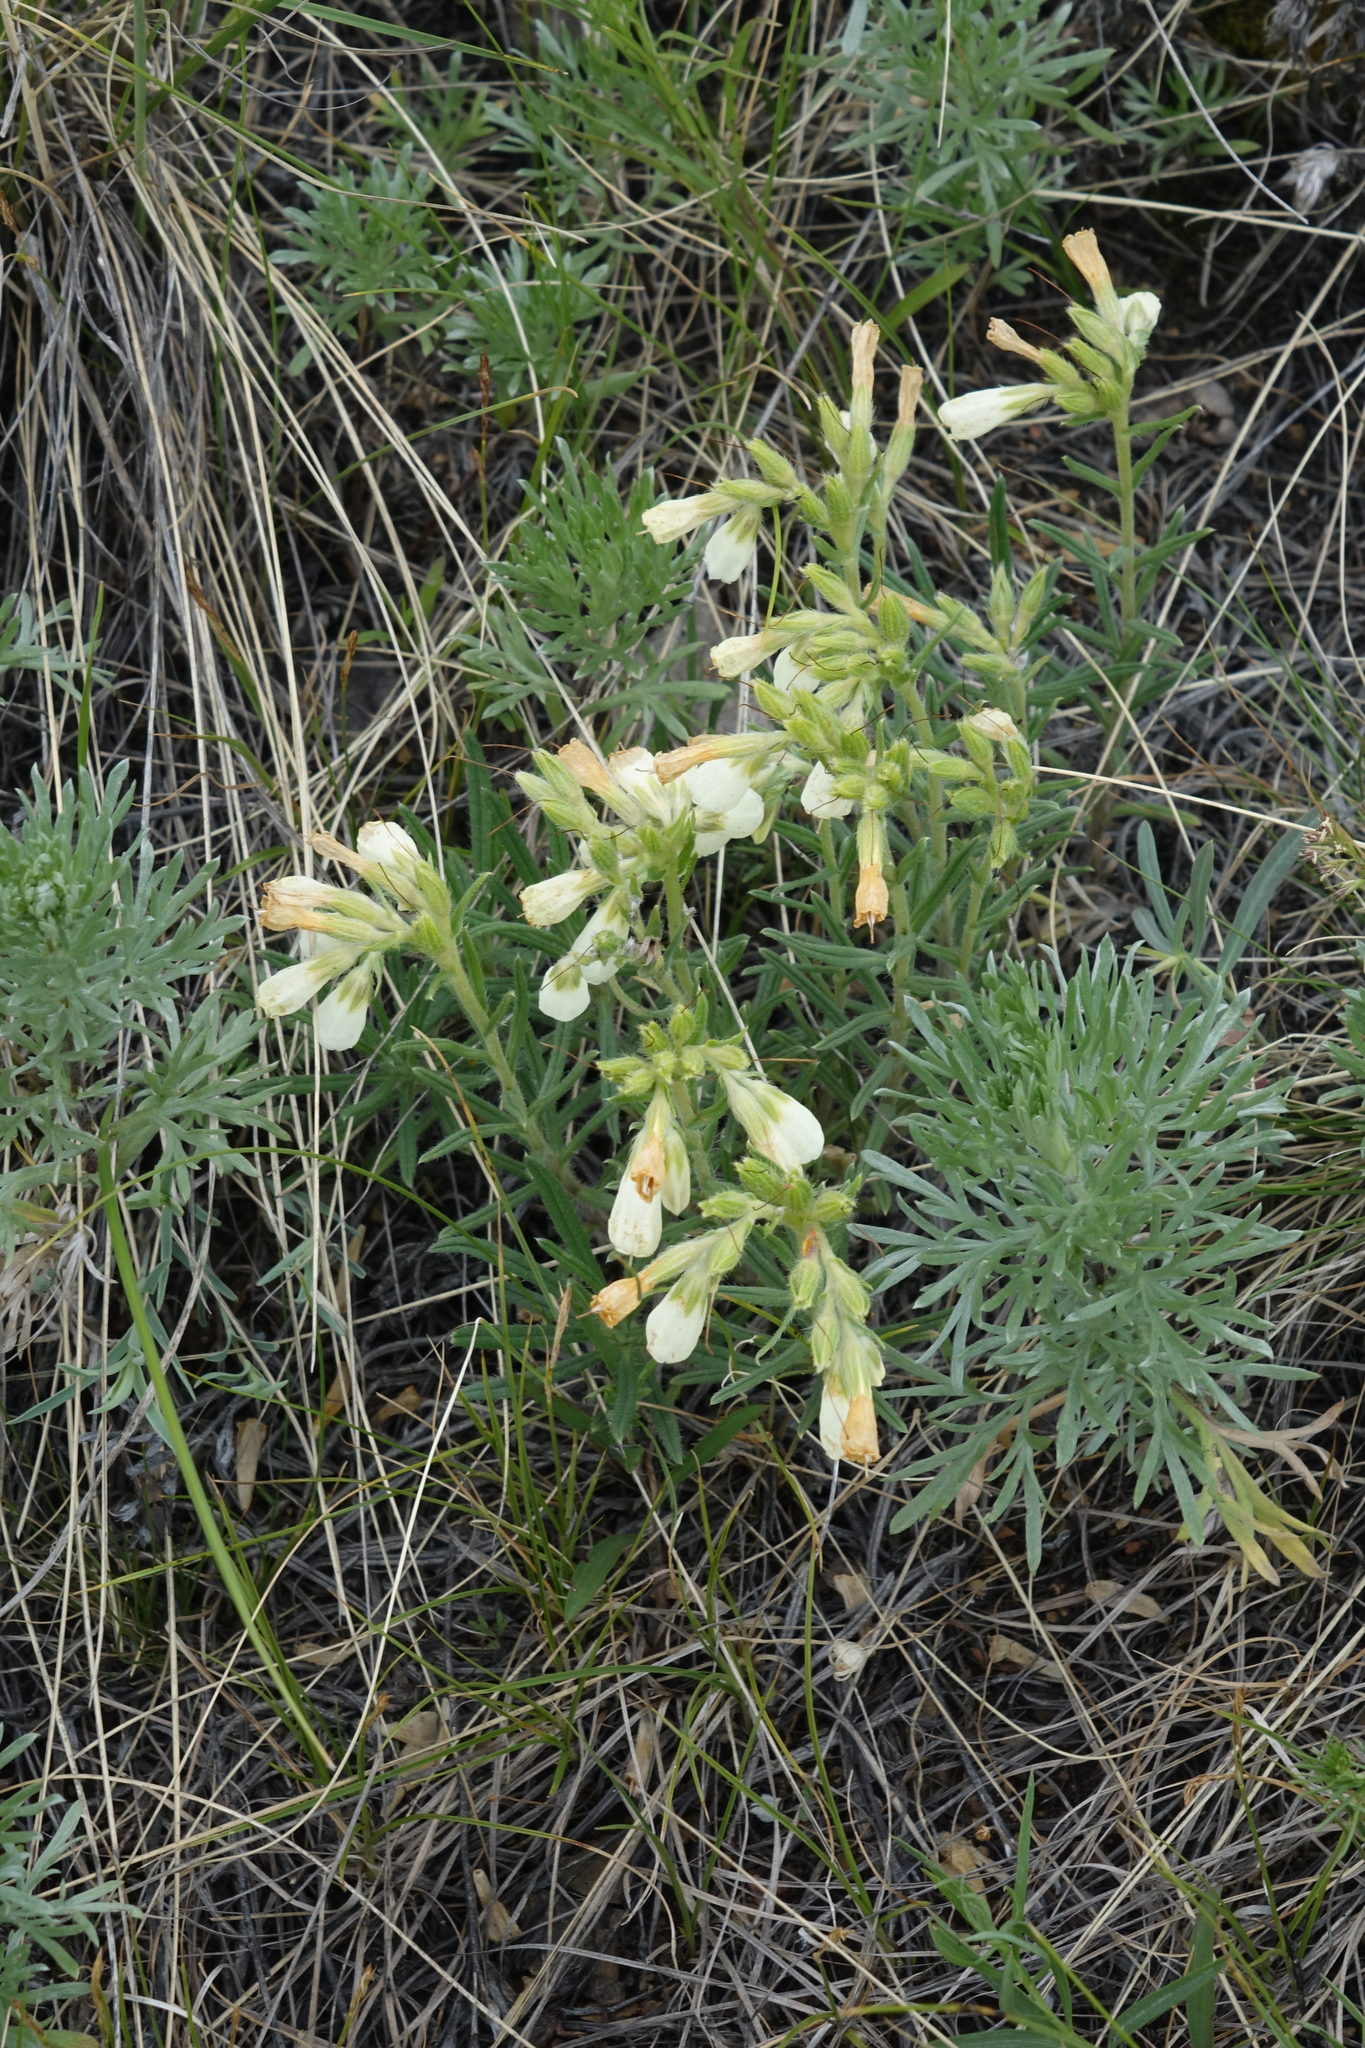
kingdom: Plantae
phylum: Tracheophyta
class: Magnoliopsida
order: Boraginales
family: Boraginaceae
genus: Onosma
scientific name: Onosma simplicissima
